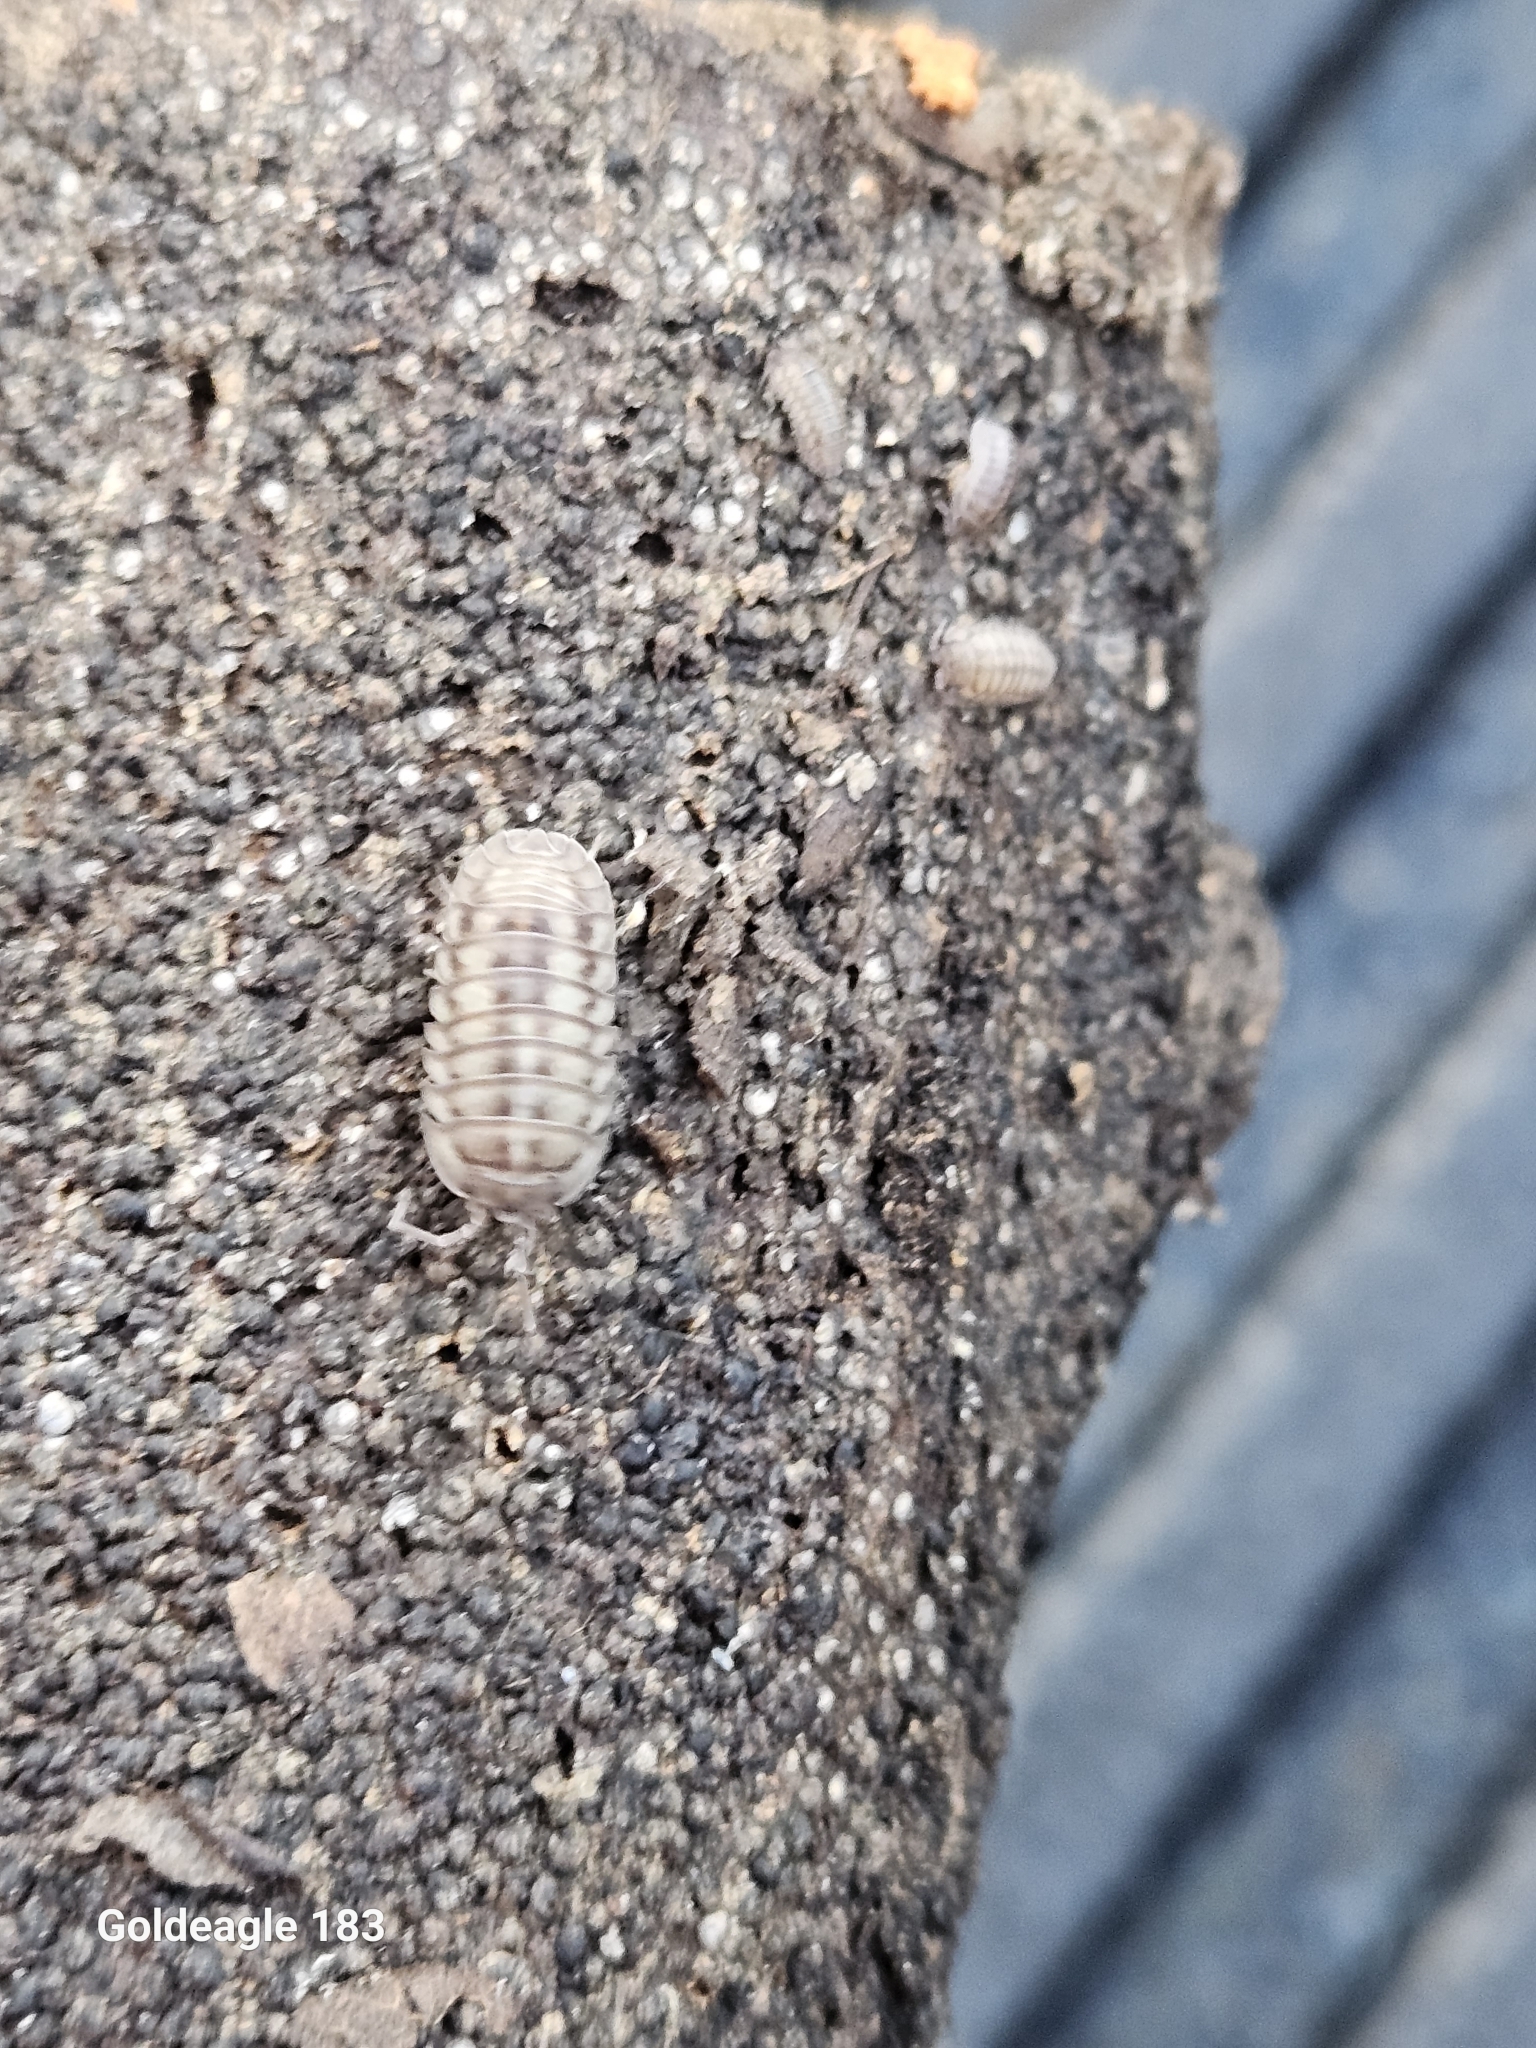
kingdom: Animalia
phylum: Arthropoda
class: Malacostraca
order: Isopoda
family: Armadillidiidae
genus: Armadillidium
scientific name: Armadillidium nasatum
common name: Isopod
